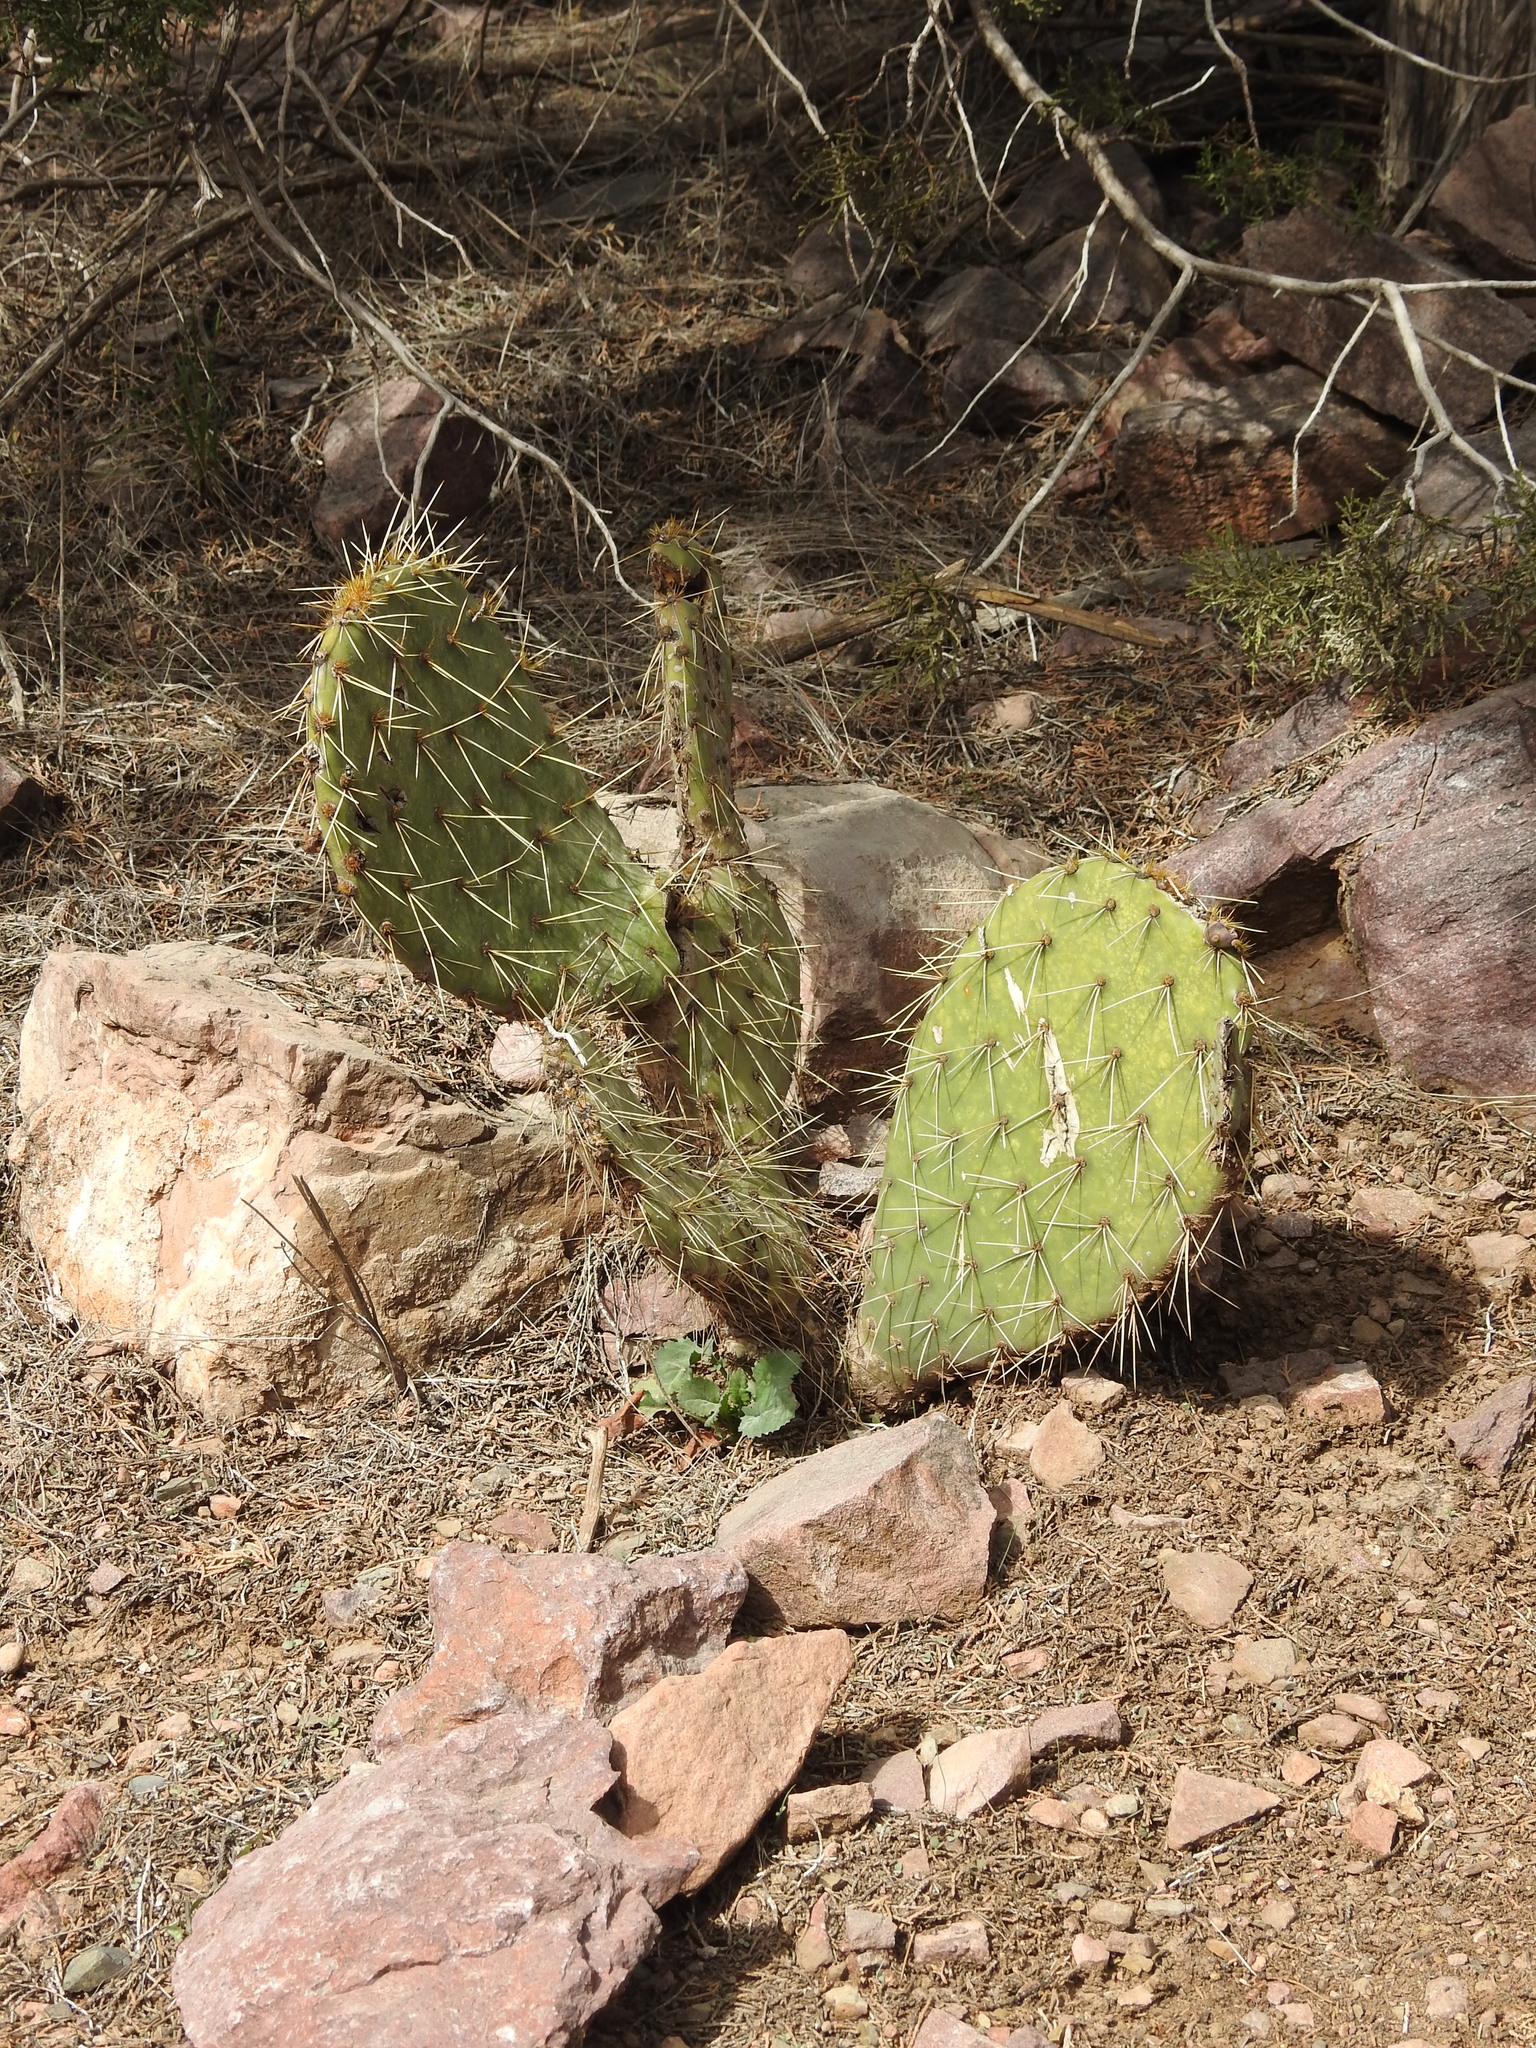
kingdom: Plantae
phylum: Tracheophyta
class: Magnoliopsida
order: Caryophyllales
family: Cactaceae
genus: Opuntia
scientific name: Opuntia engelmannii
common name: Cactus-apple
